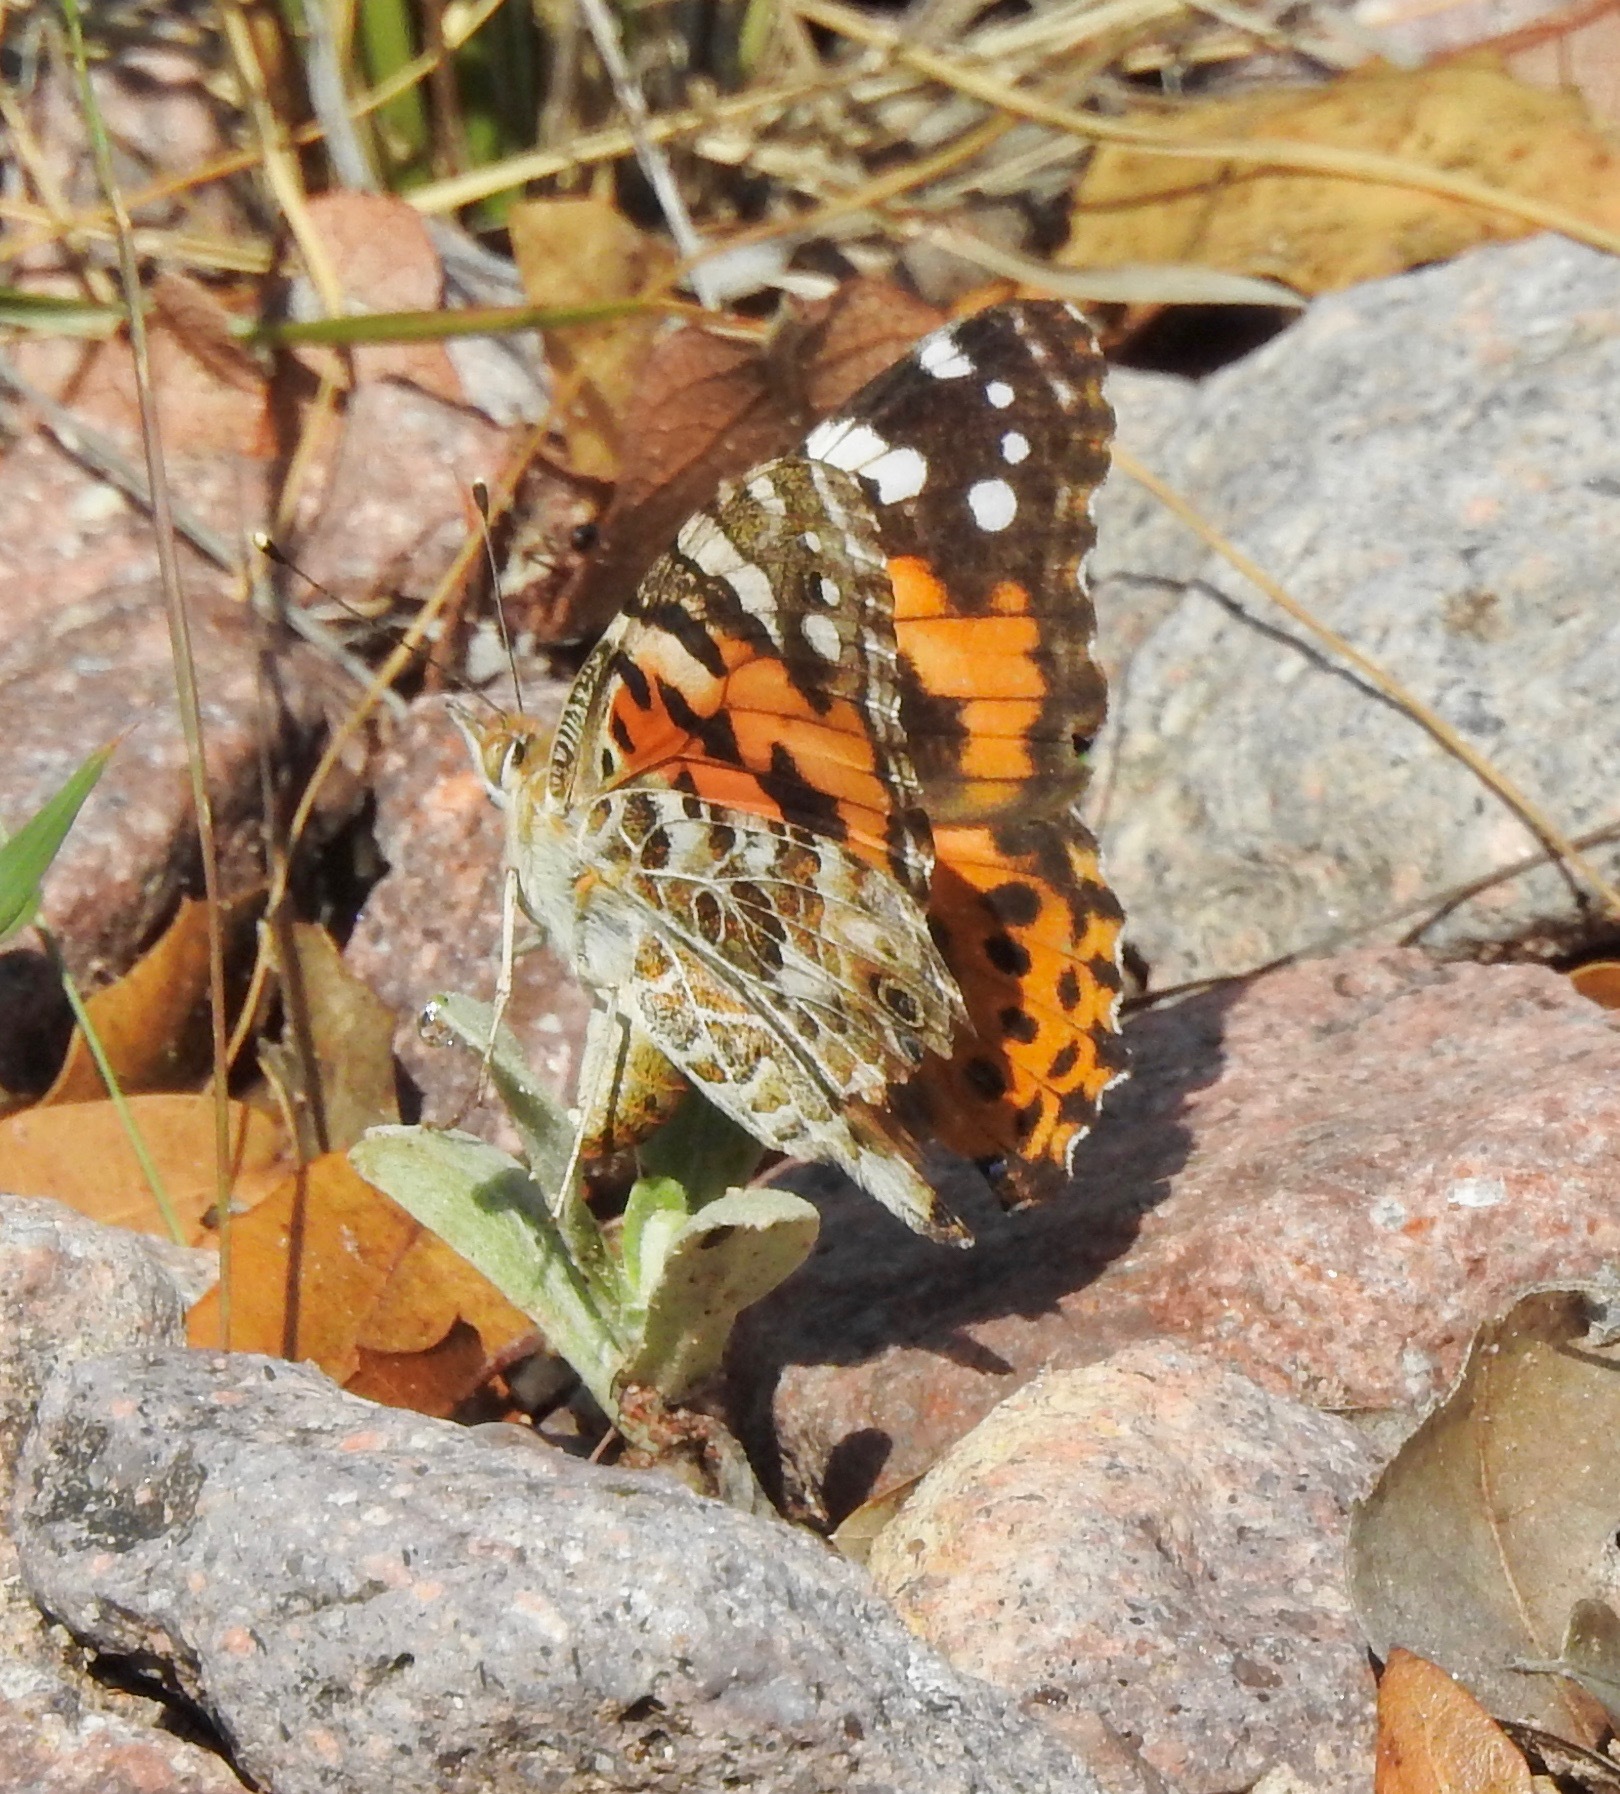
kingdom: Animalia
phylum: Arthropoda
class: Insecta
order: Lepidoptera
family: Nymphalidae
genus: Vanessa
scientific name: Vanessa cardui
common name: Painted lady
